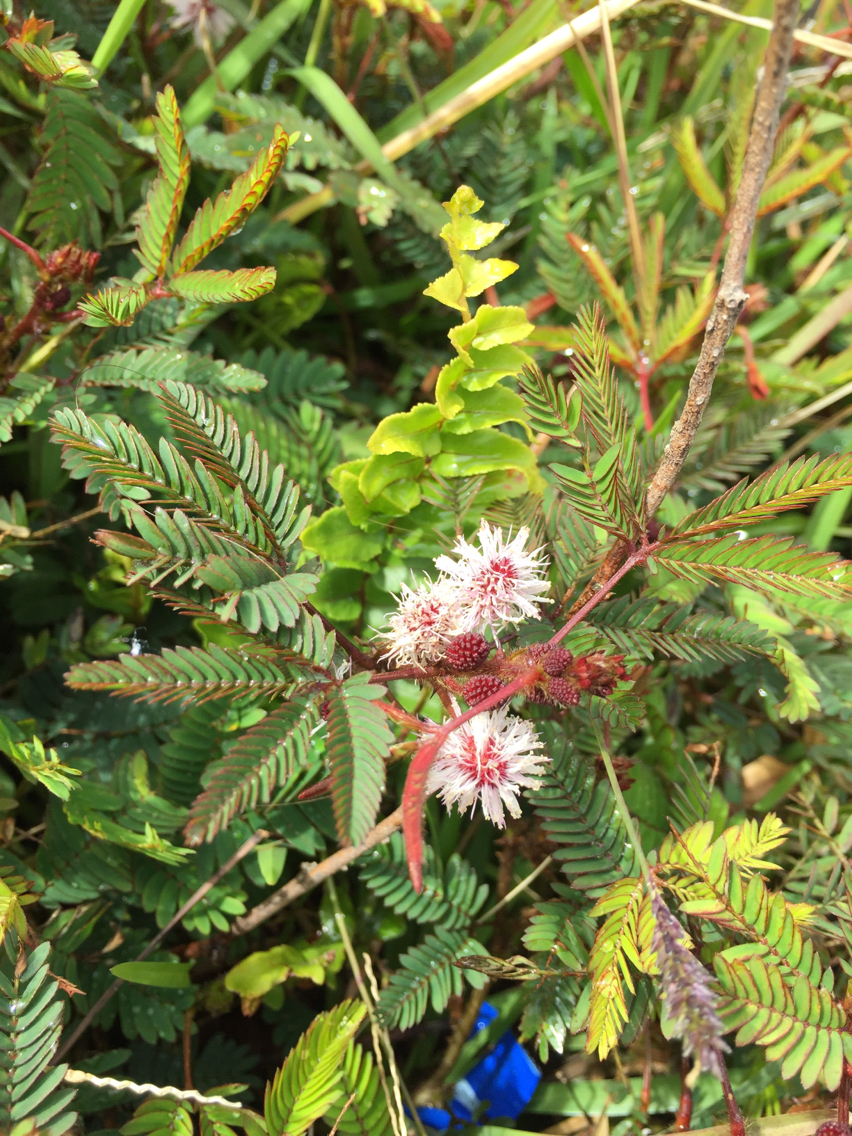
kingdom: Plantae
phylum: Tracheophyta
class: Magnoliopsida
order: Fabales
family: Fabaceae
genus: Mimosa
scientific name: Mimosa pudica
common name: Sensitive plant
